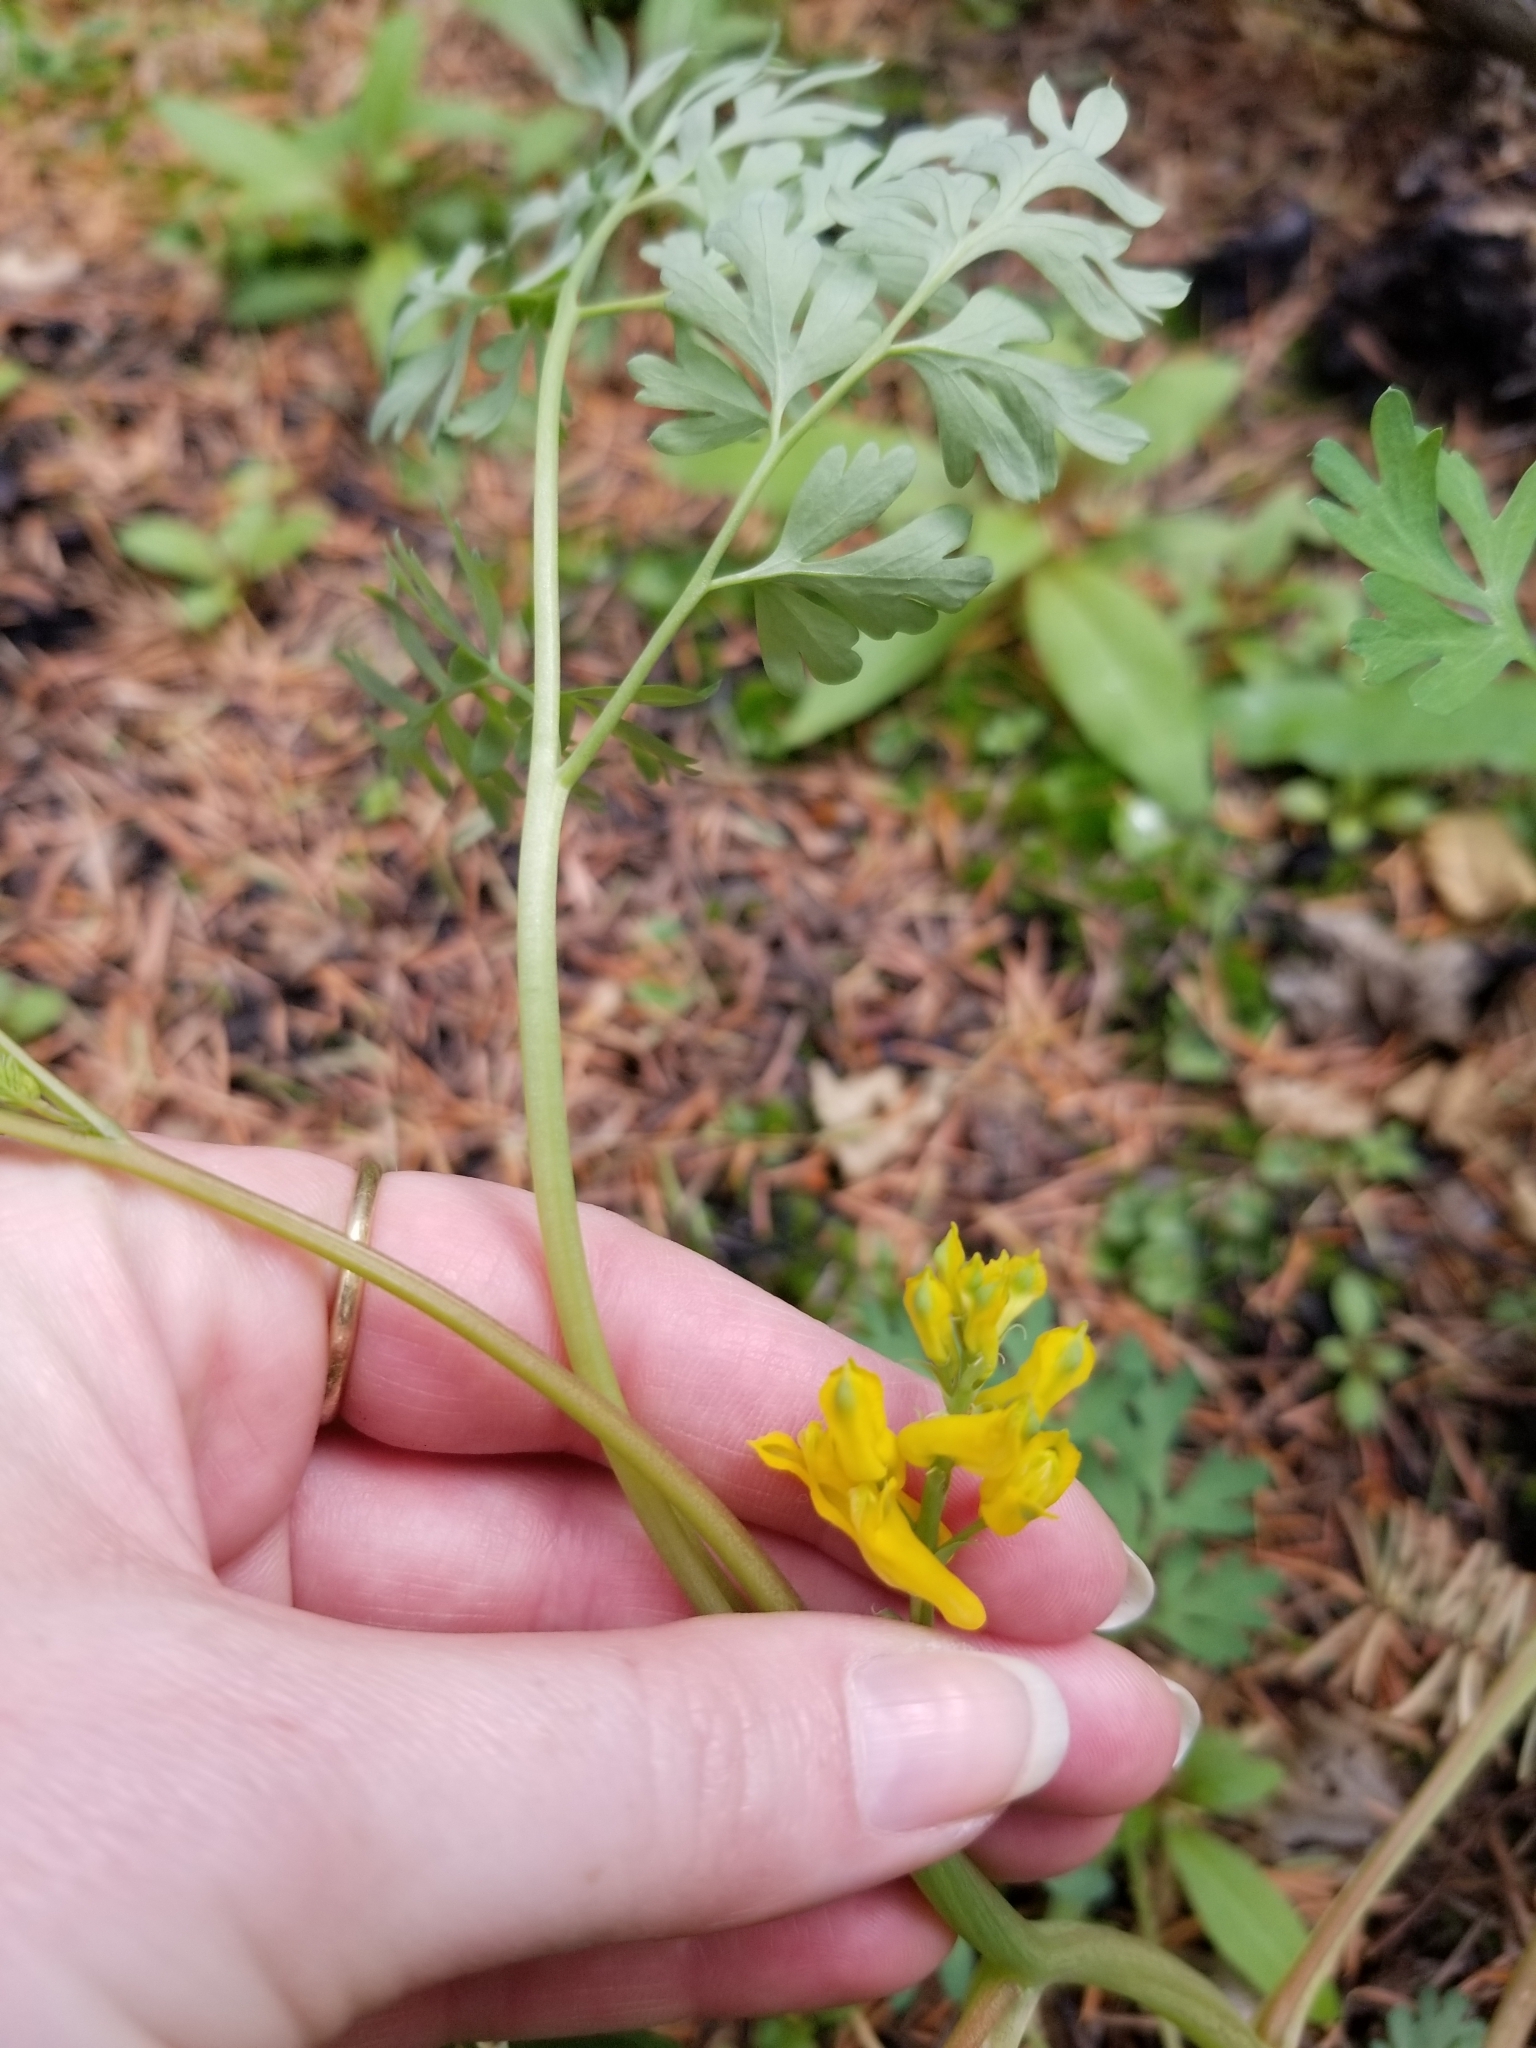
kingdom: Plantae
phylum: Tracheophyta
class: Magnoliopsida
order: Ranunculales
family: Papaveraceae
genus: Corydalis
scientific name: Corydalis aurea
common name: Golden corydalis
